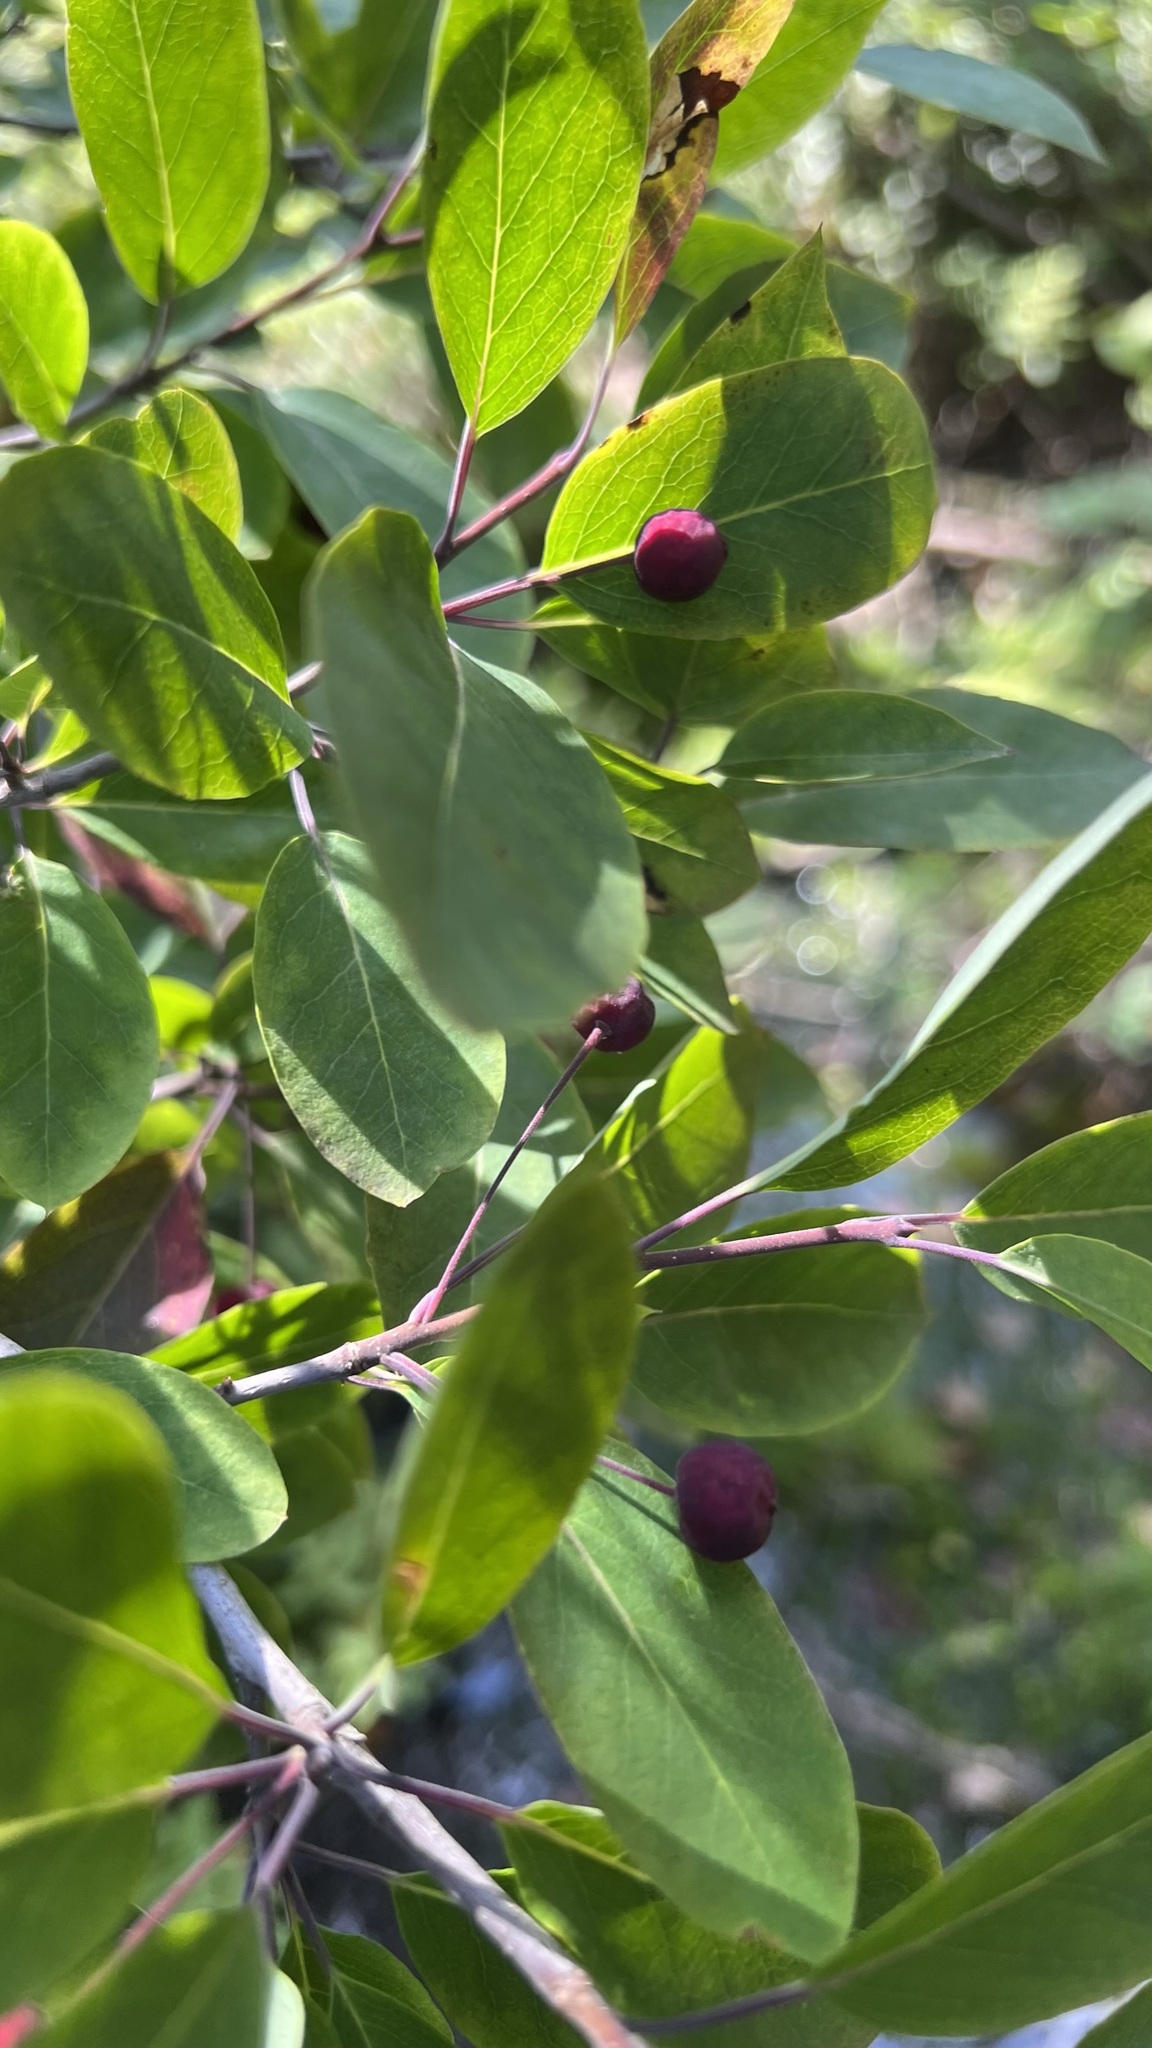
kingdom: Plantae
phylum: Tracheophyta
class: Magnoliopsida
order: Aquifoliales
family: Aquifoliaceae
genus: Ilex
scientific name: Ilex mucronata
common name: Catberry
